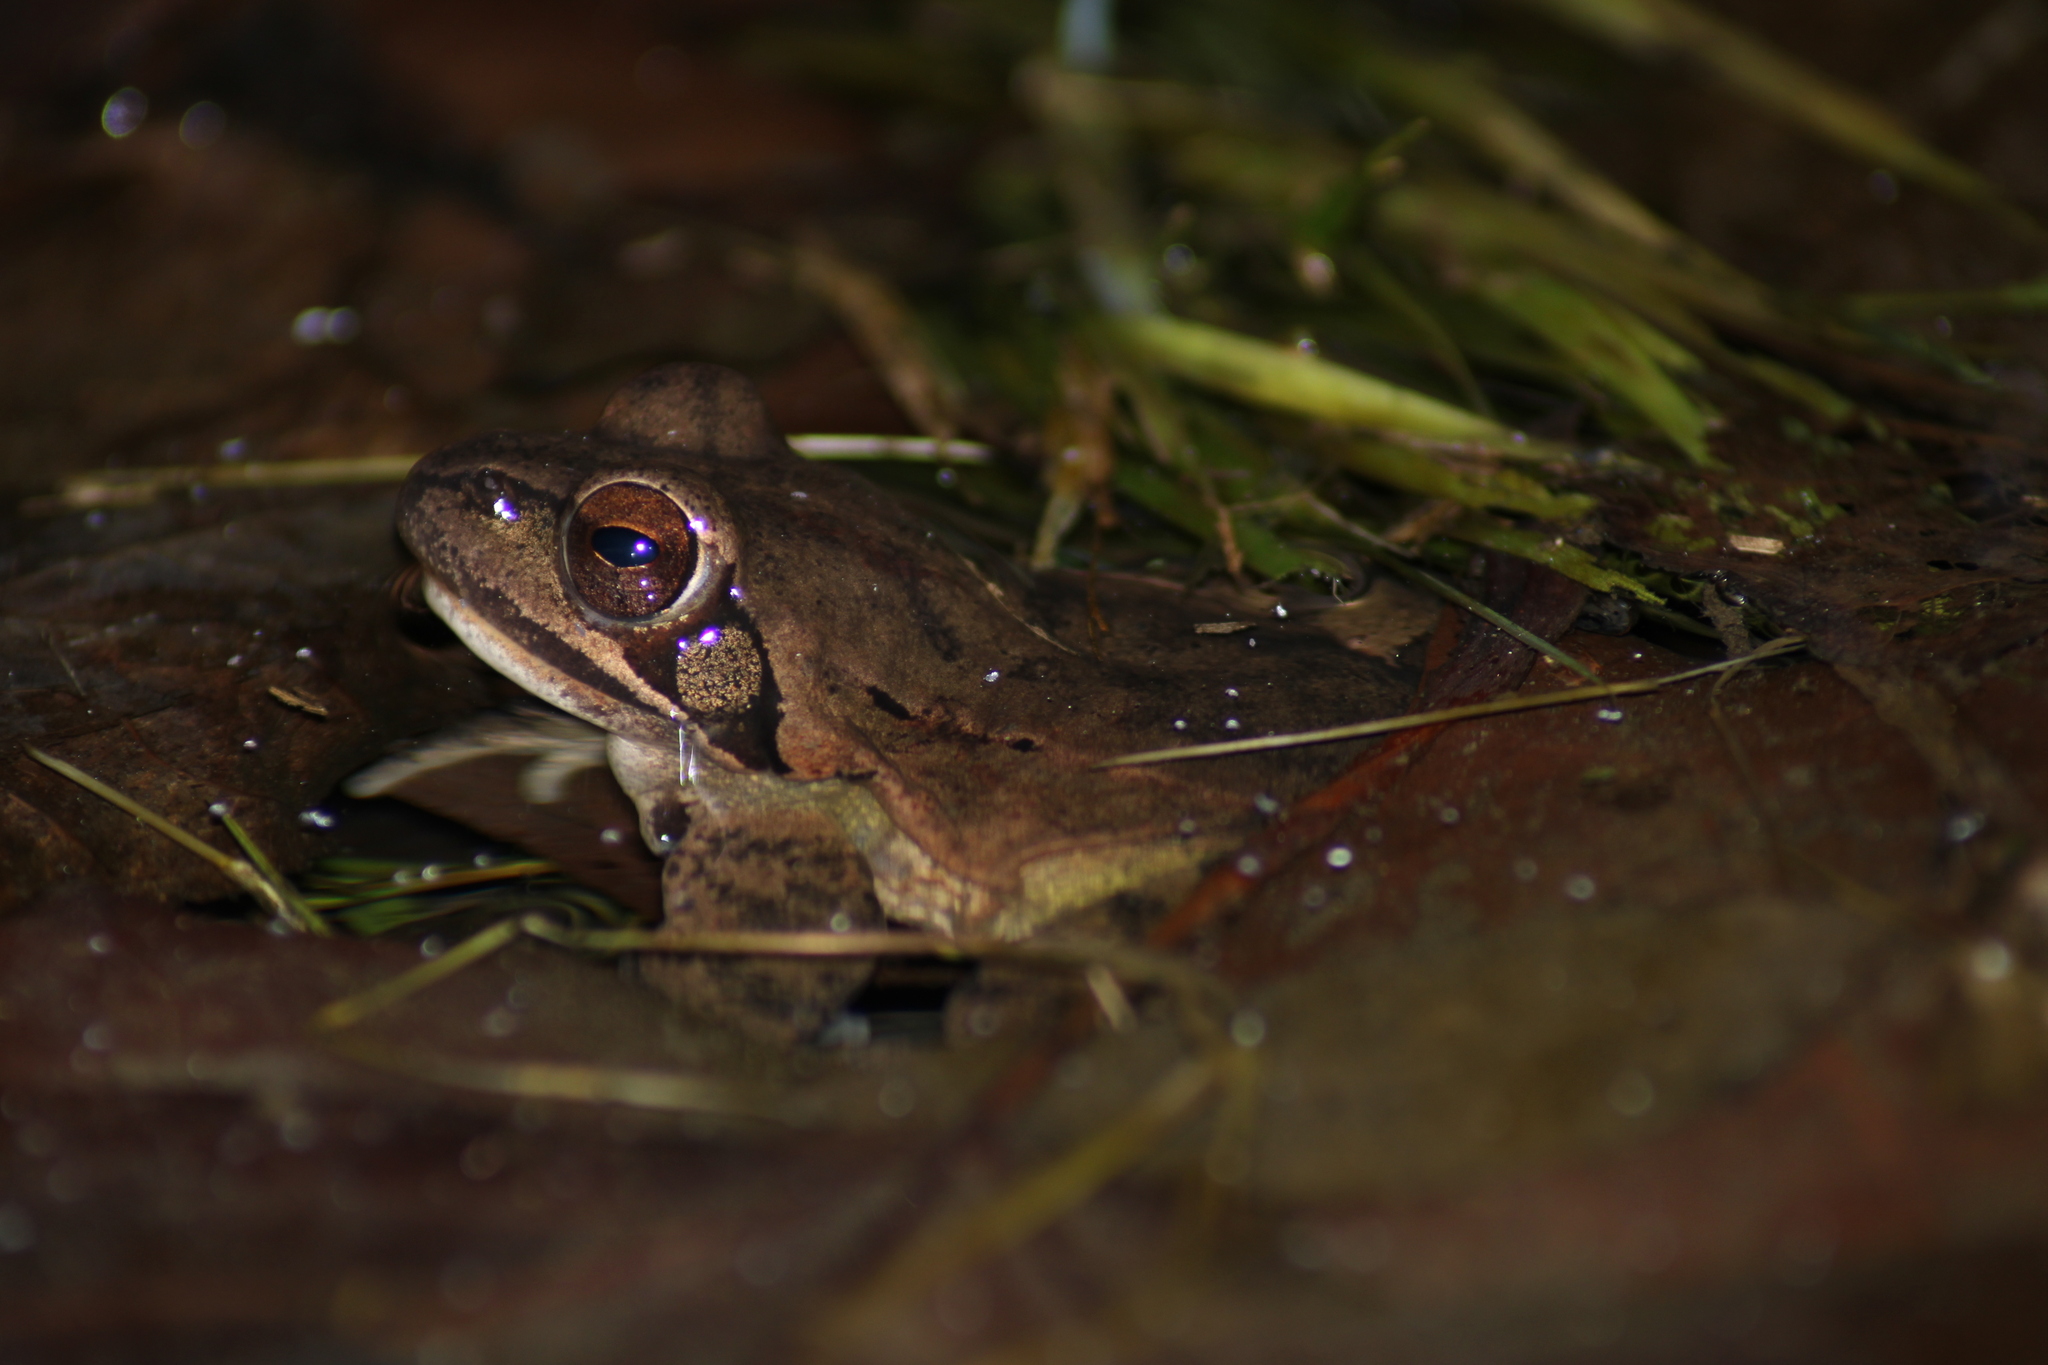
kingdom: Animalia
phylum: Chordata
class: Amphibia
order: Anura
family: Ranidae
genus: Rana
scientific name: Rana dalmatina
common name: Agile frog
